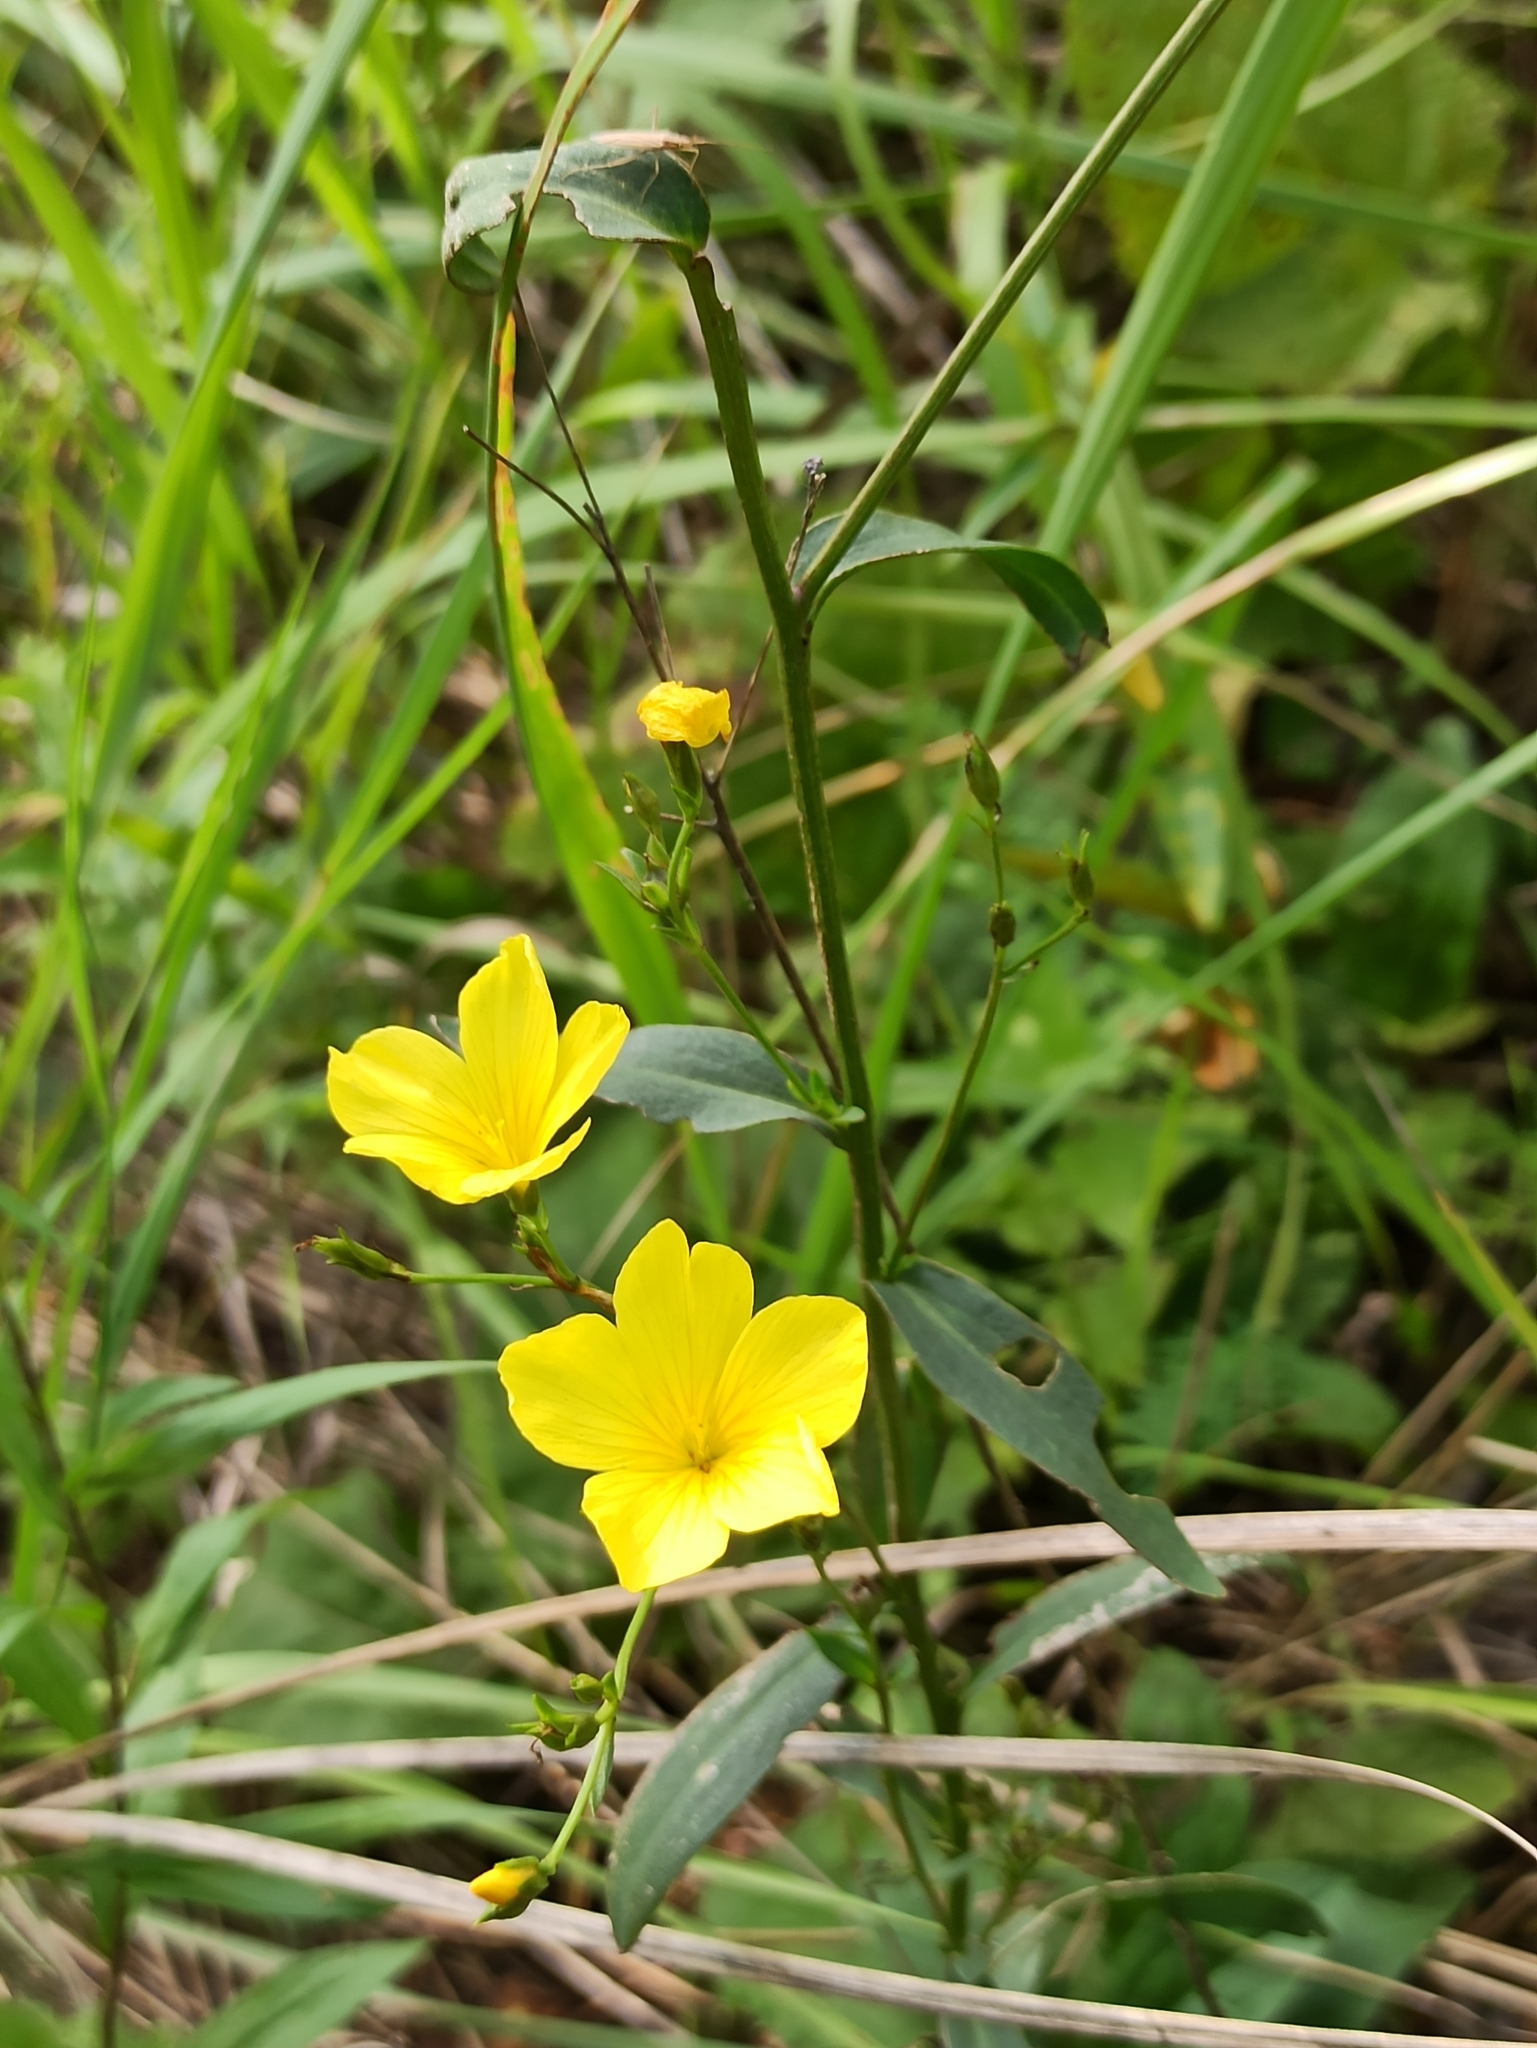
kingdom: Plantae
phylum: Tracheophyta
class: Magnoliopsida
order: Malpighiales
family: Linaceae
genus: Linum
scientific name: Linum flavum
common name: Yellow flax
